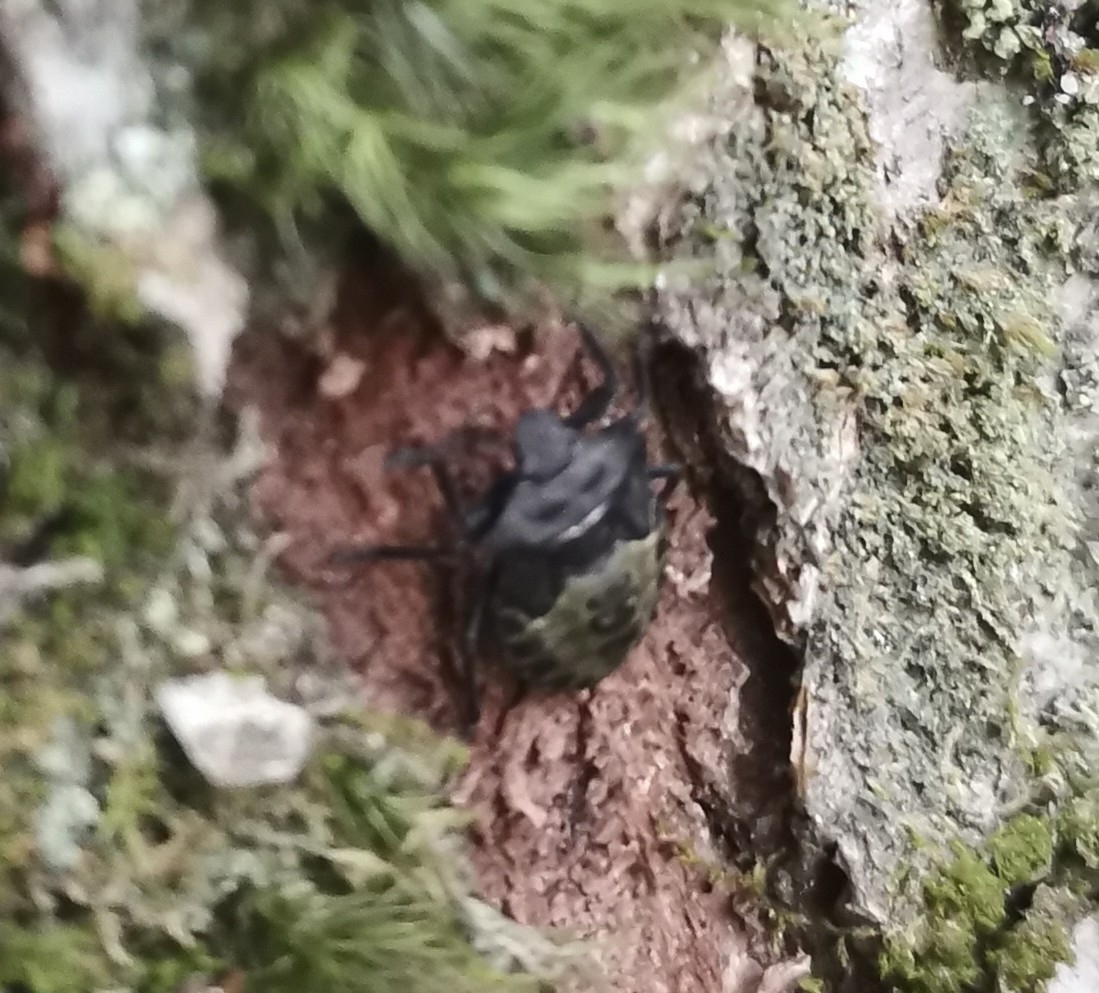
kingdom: Animalia
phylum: Arthropoda
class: Insecta
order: Hemiptera
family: Pentatomidae
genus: Pentatoma
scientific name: Pentatoma rufipes
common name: Forest bug
